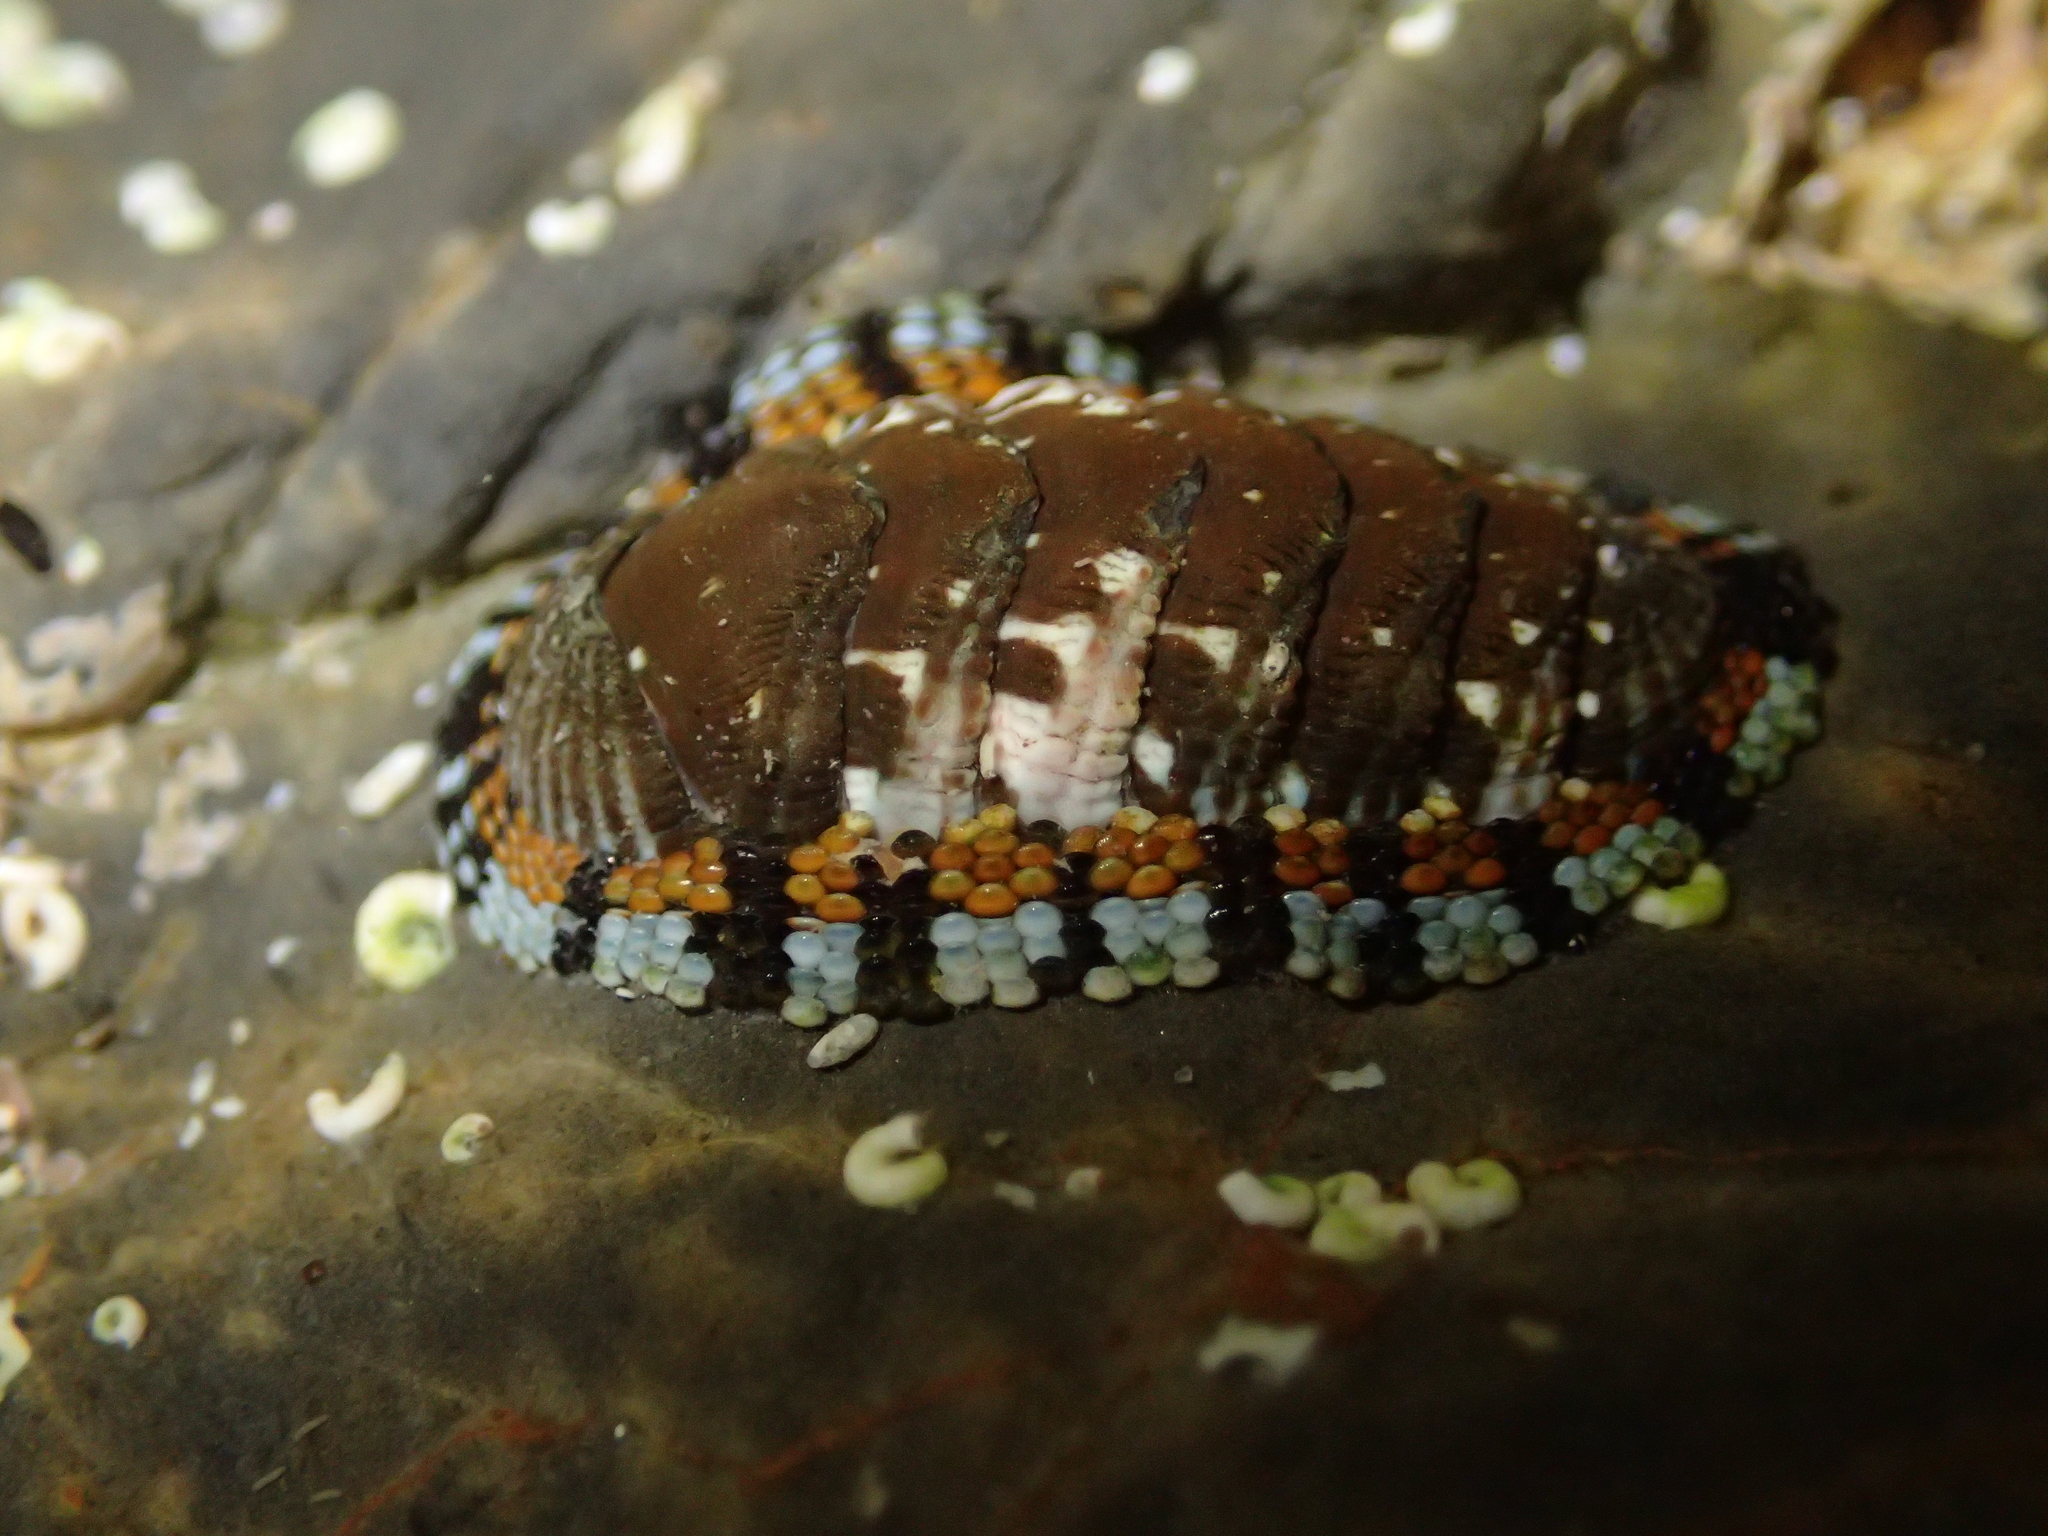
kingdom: Animalia
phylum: Mollusca
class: Polyplacophora
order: Chitonida
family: Chitonidae
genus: Sypharochiton
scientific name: Sypharochiton sinclairi
